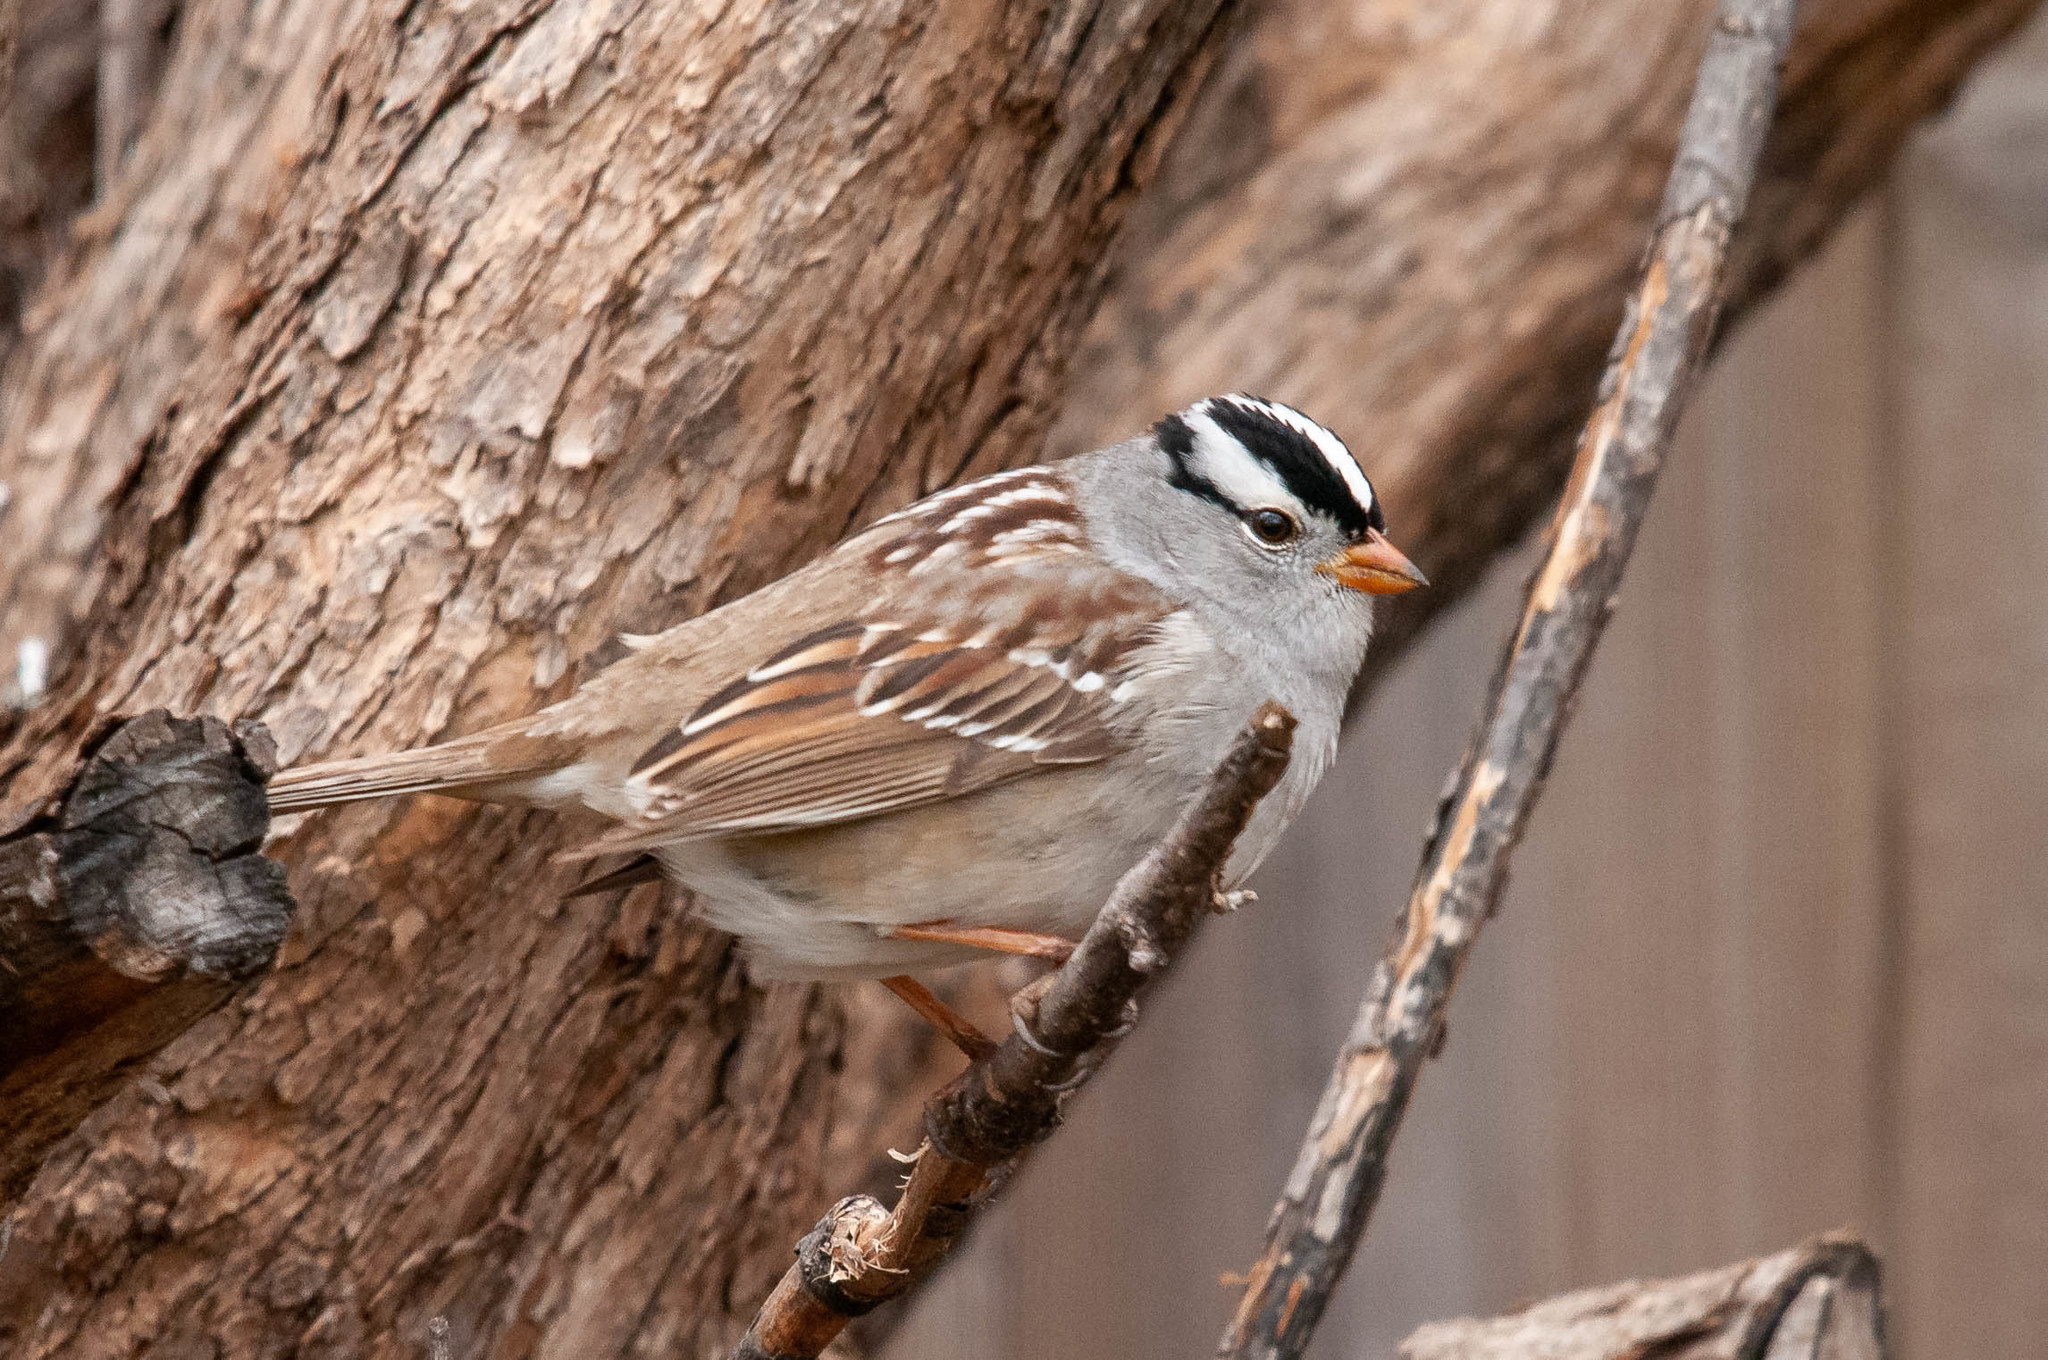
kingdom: Animalia
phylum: Chordata
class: Aves
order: Passeriformes
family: Passerellidae
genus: Zonotrichia
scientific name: Zonotrichia leucophrys
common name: White-crowned sparrow
